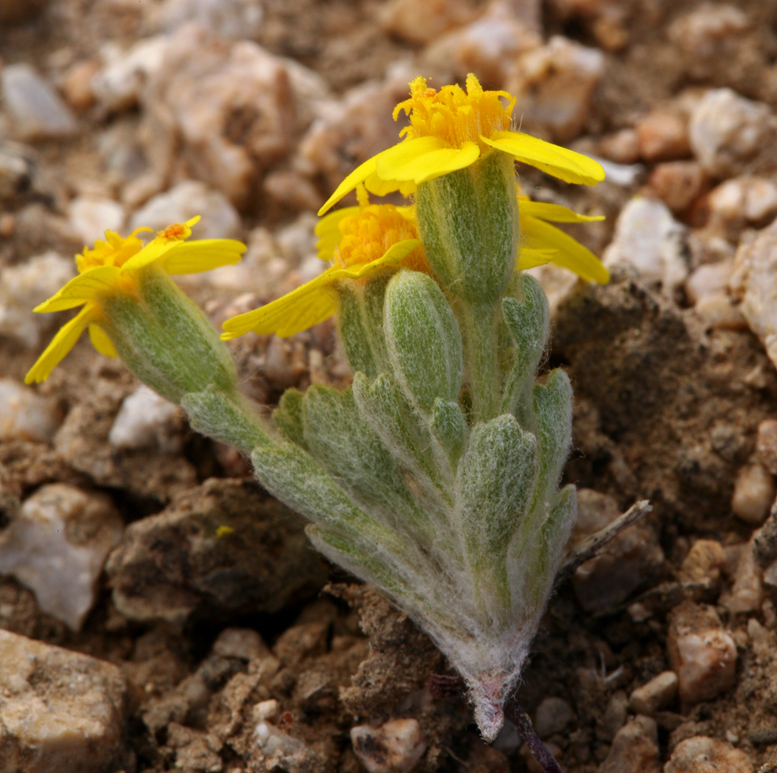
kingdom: Plantae
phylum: Tracheophyta
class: Magnoliopsida
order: Asterales
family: Asteraceae
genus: Syntrichopappus
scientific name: Syntrichopappus fremontii
